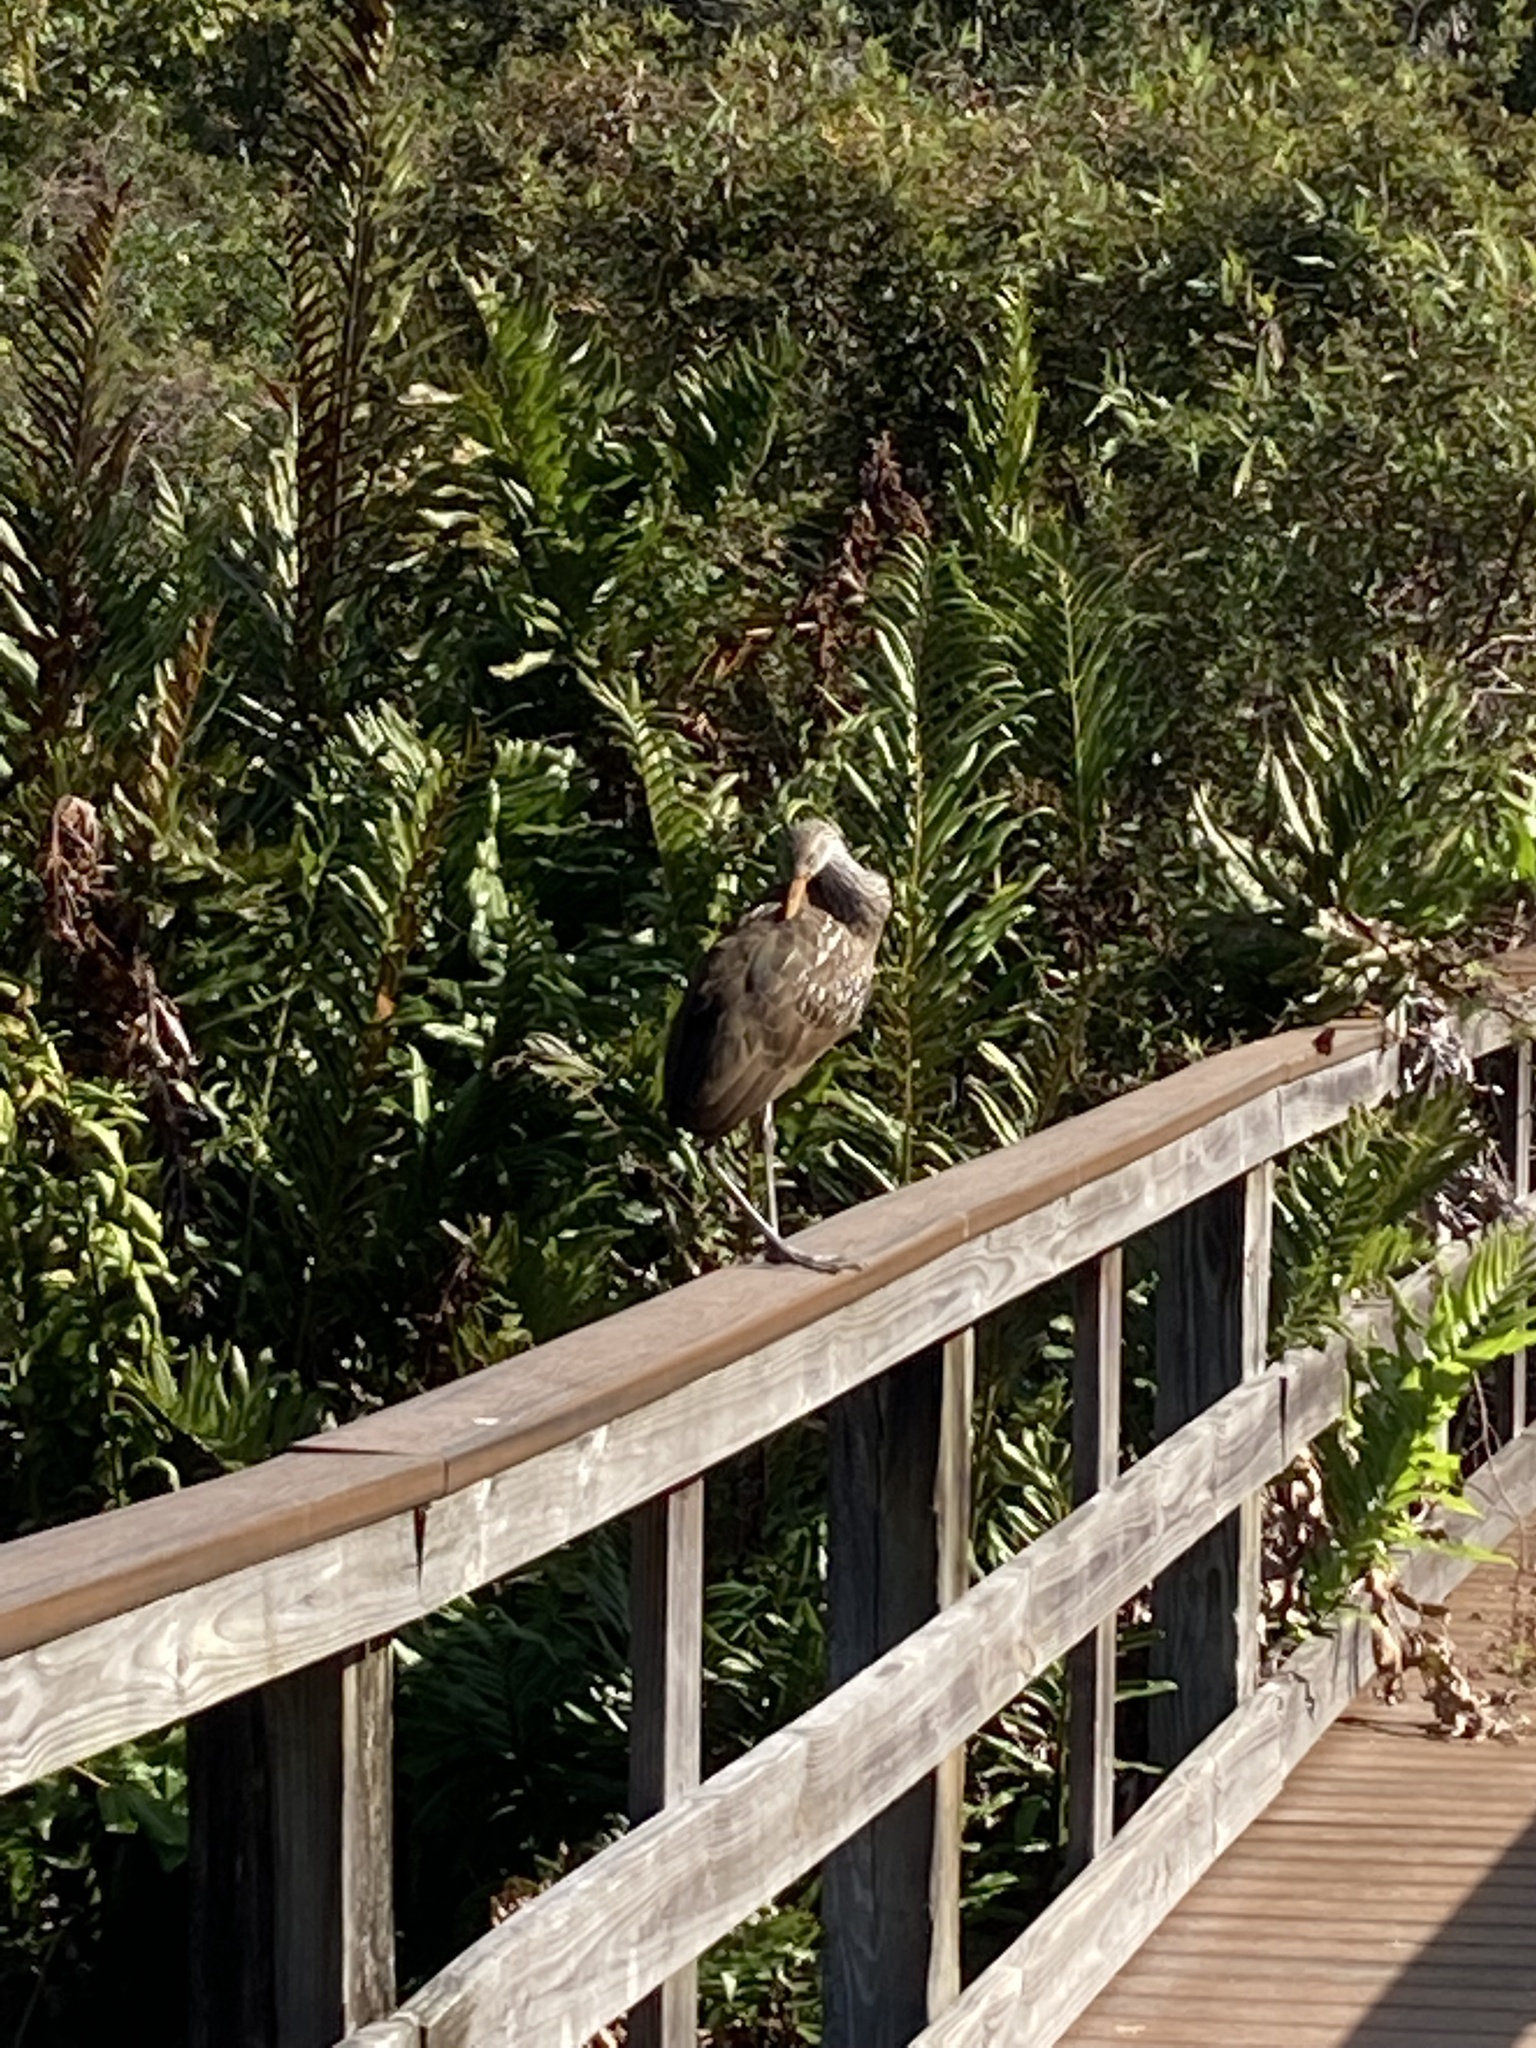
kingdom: Animalia
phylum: Chordata
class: Aves
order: Gruiformes
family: Aramidae
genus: Aramus
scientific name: Aramus guarauna
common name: Limpkin
